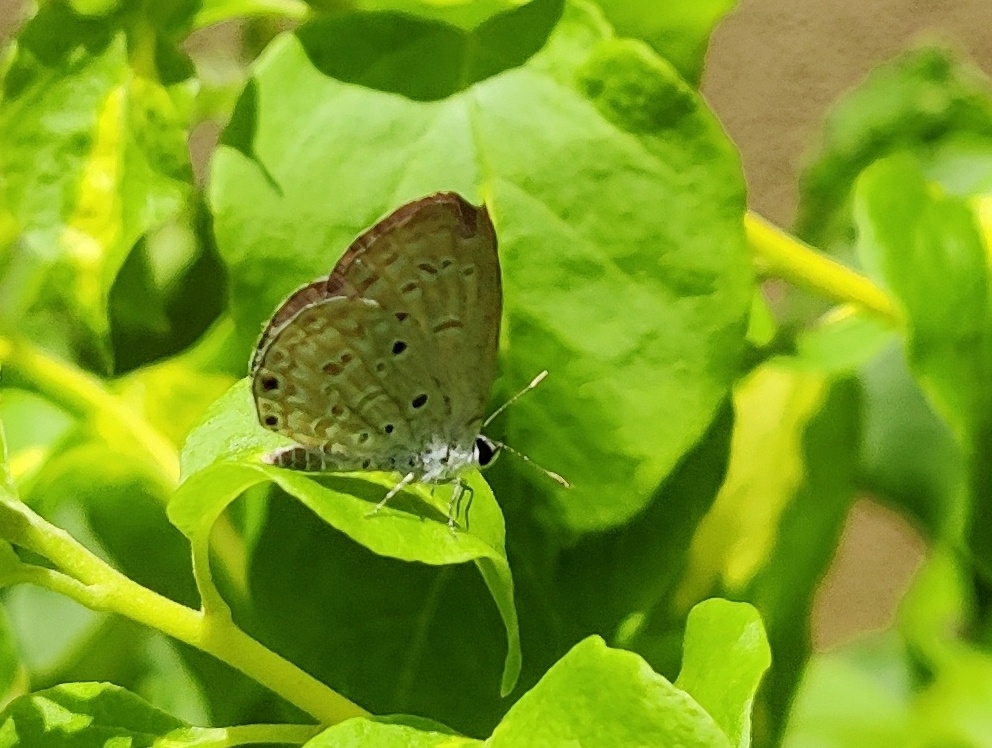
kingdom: Animalia
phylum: Arthropoda
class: Insecta
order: Lepidoptera
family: Lycaenidae
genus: Chilades
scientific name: Chilades laius
